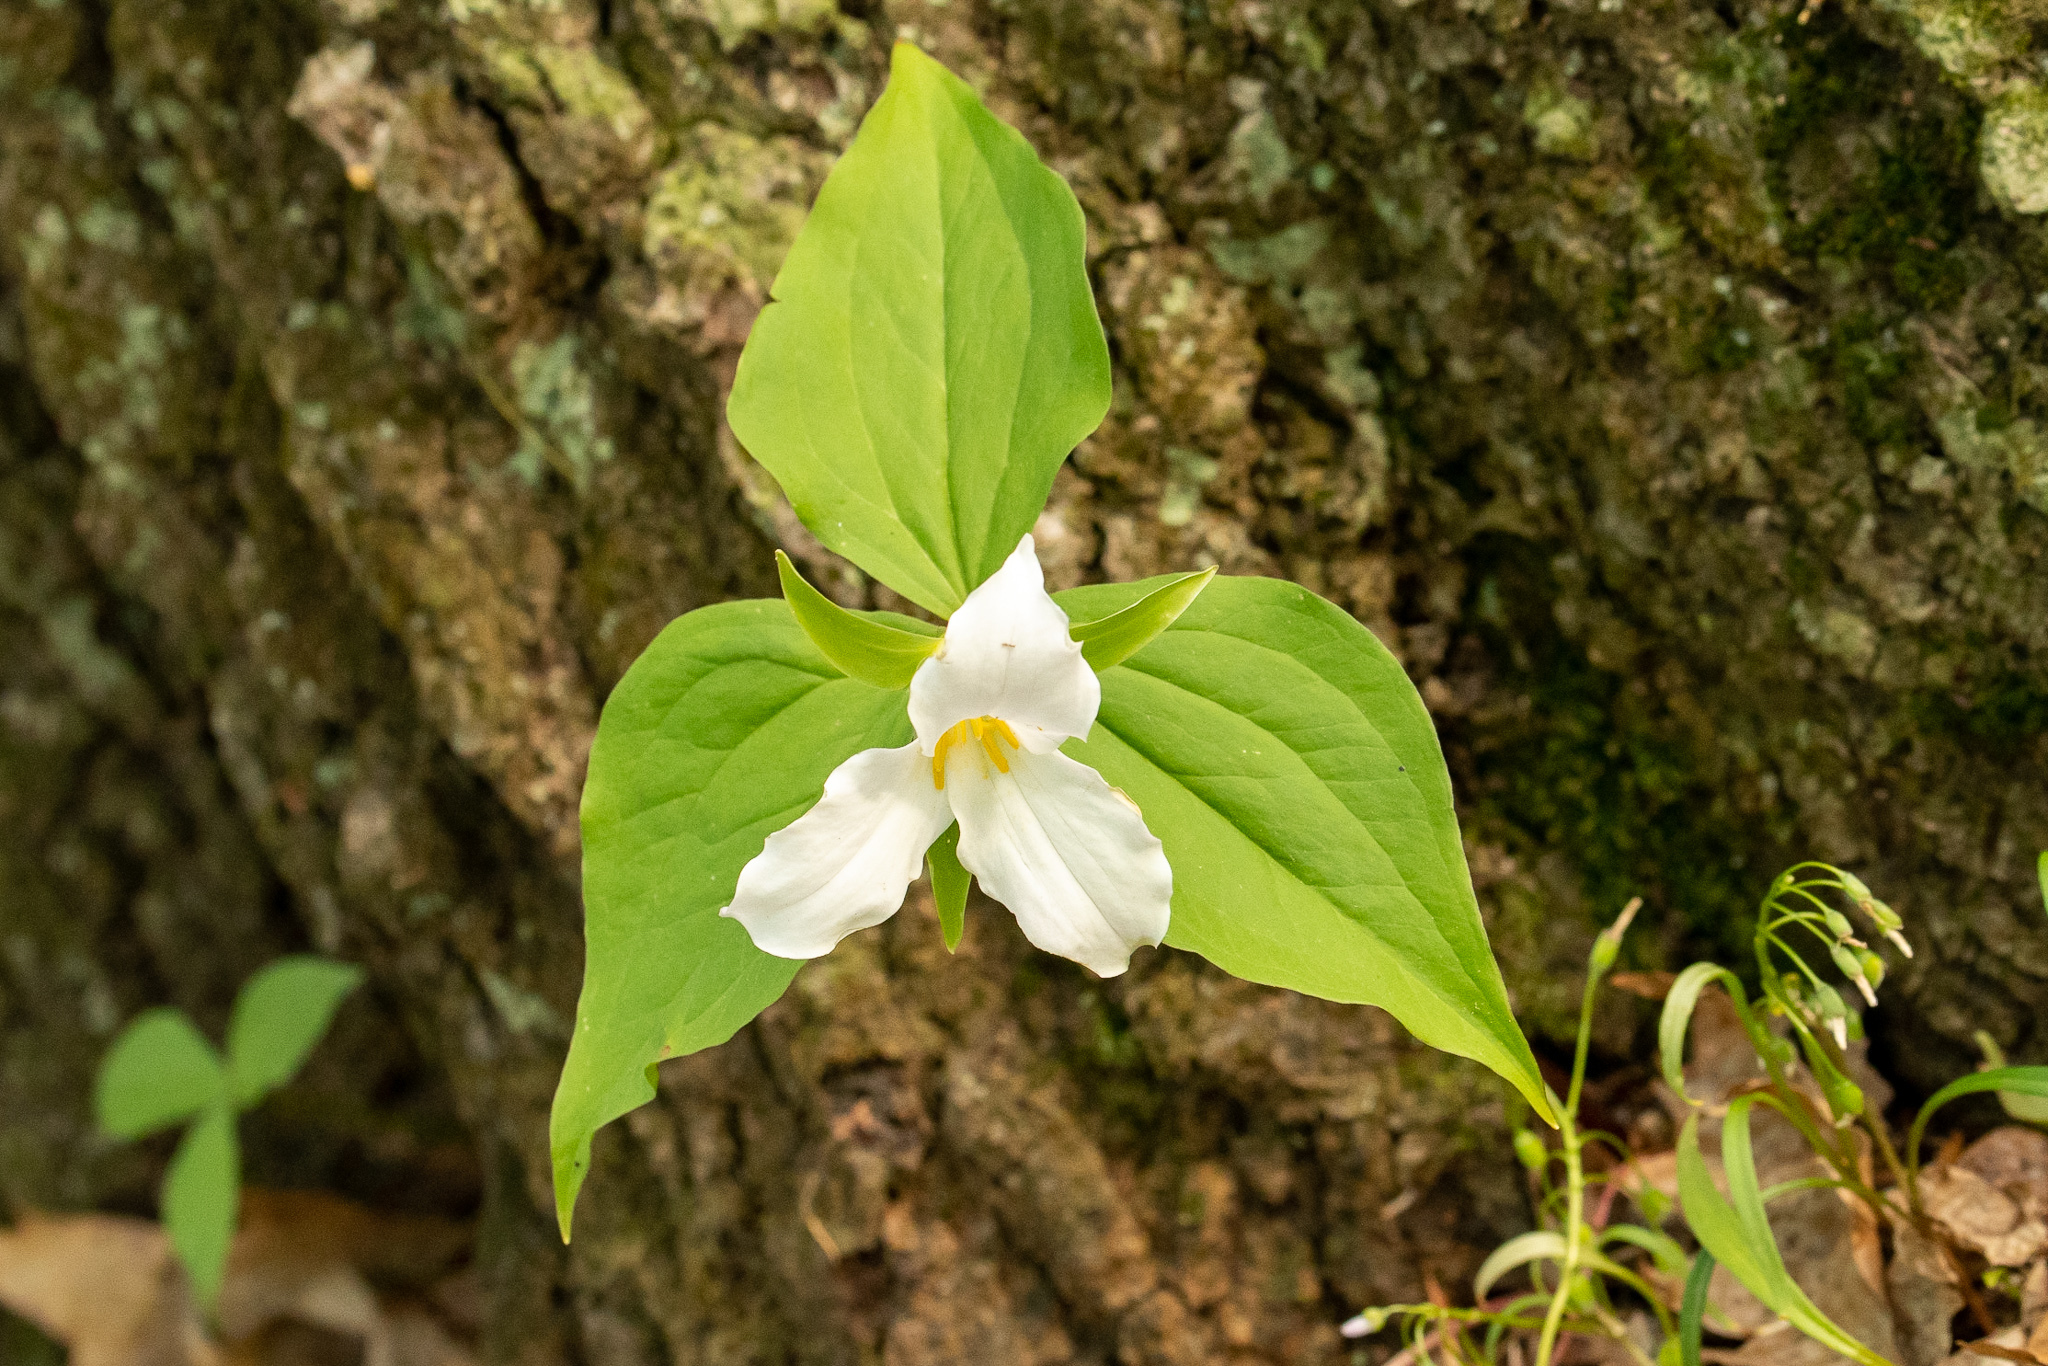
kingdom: Plantae
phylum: Tracheophyta
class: Liliopsida
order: Liliales
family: Melanthiaceae
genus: Trillium
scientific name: Trillium grandiflorum
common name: Great white trillium
